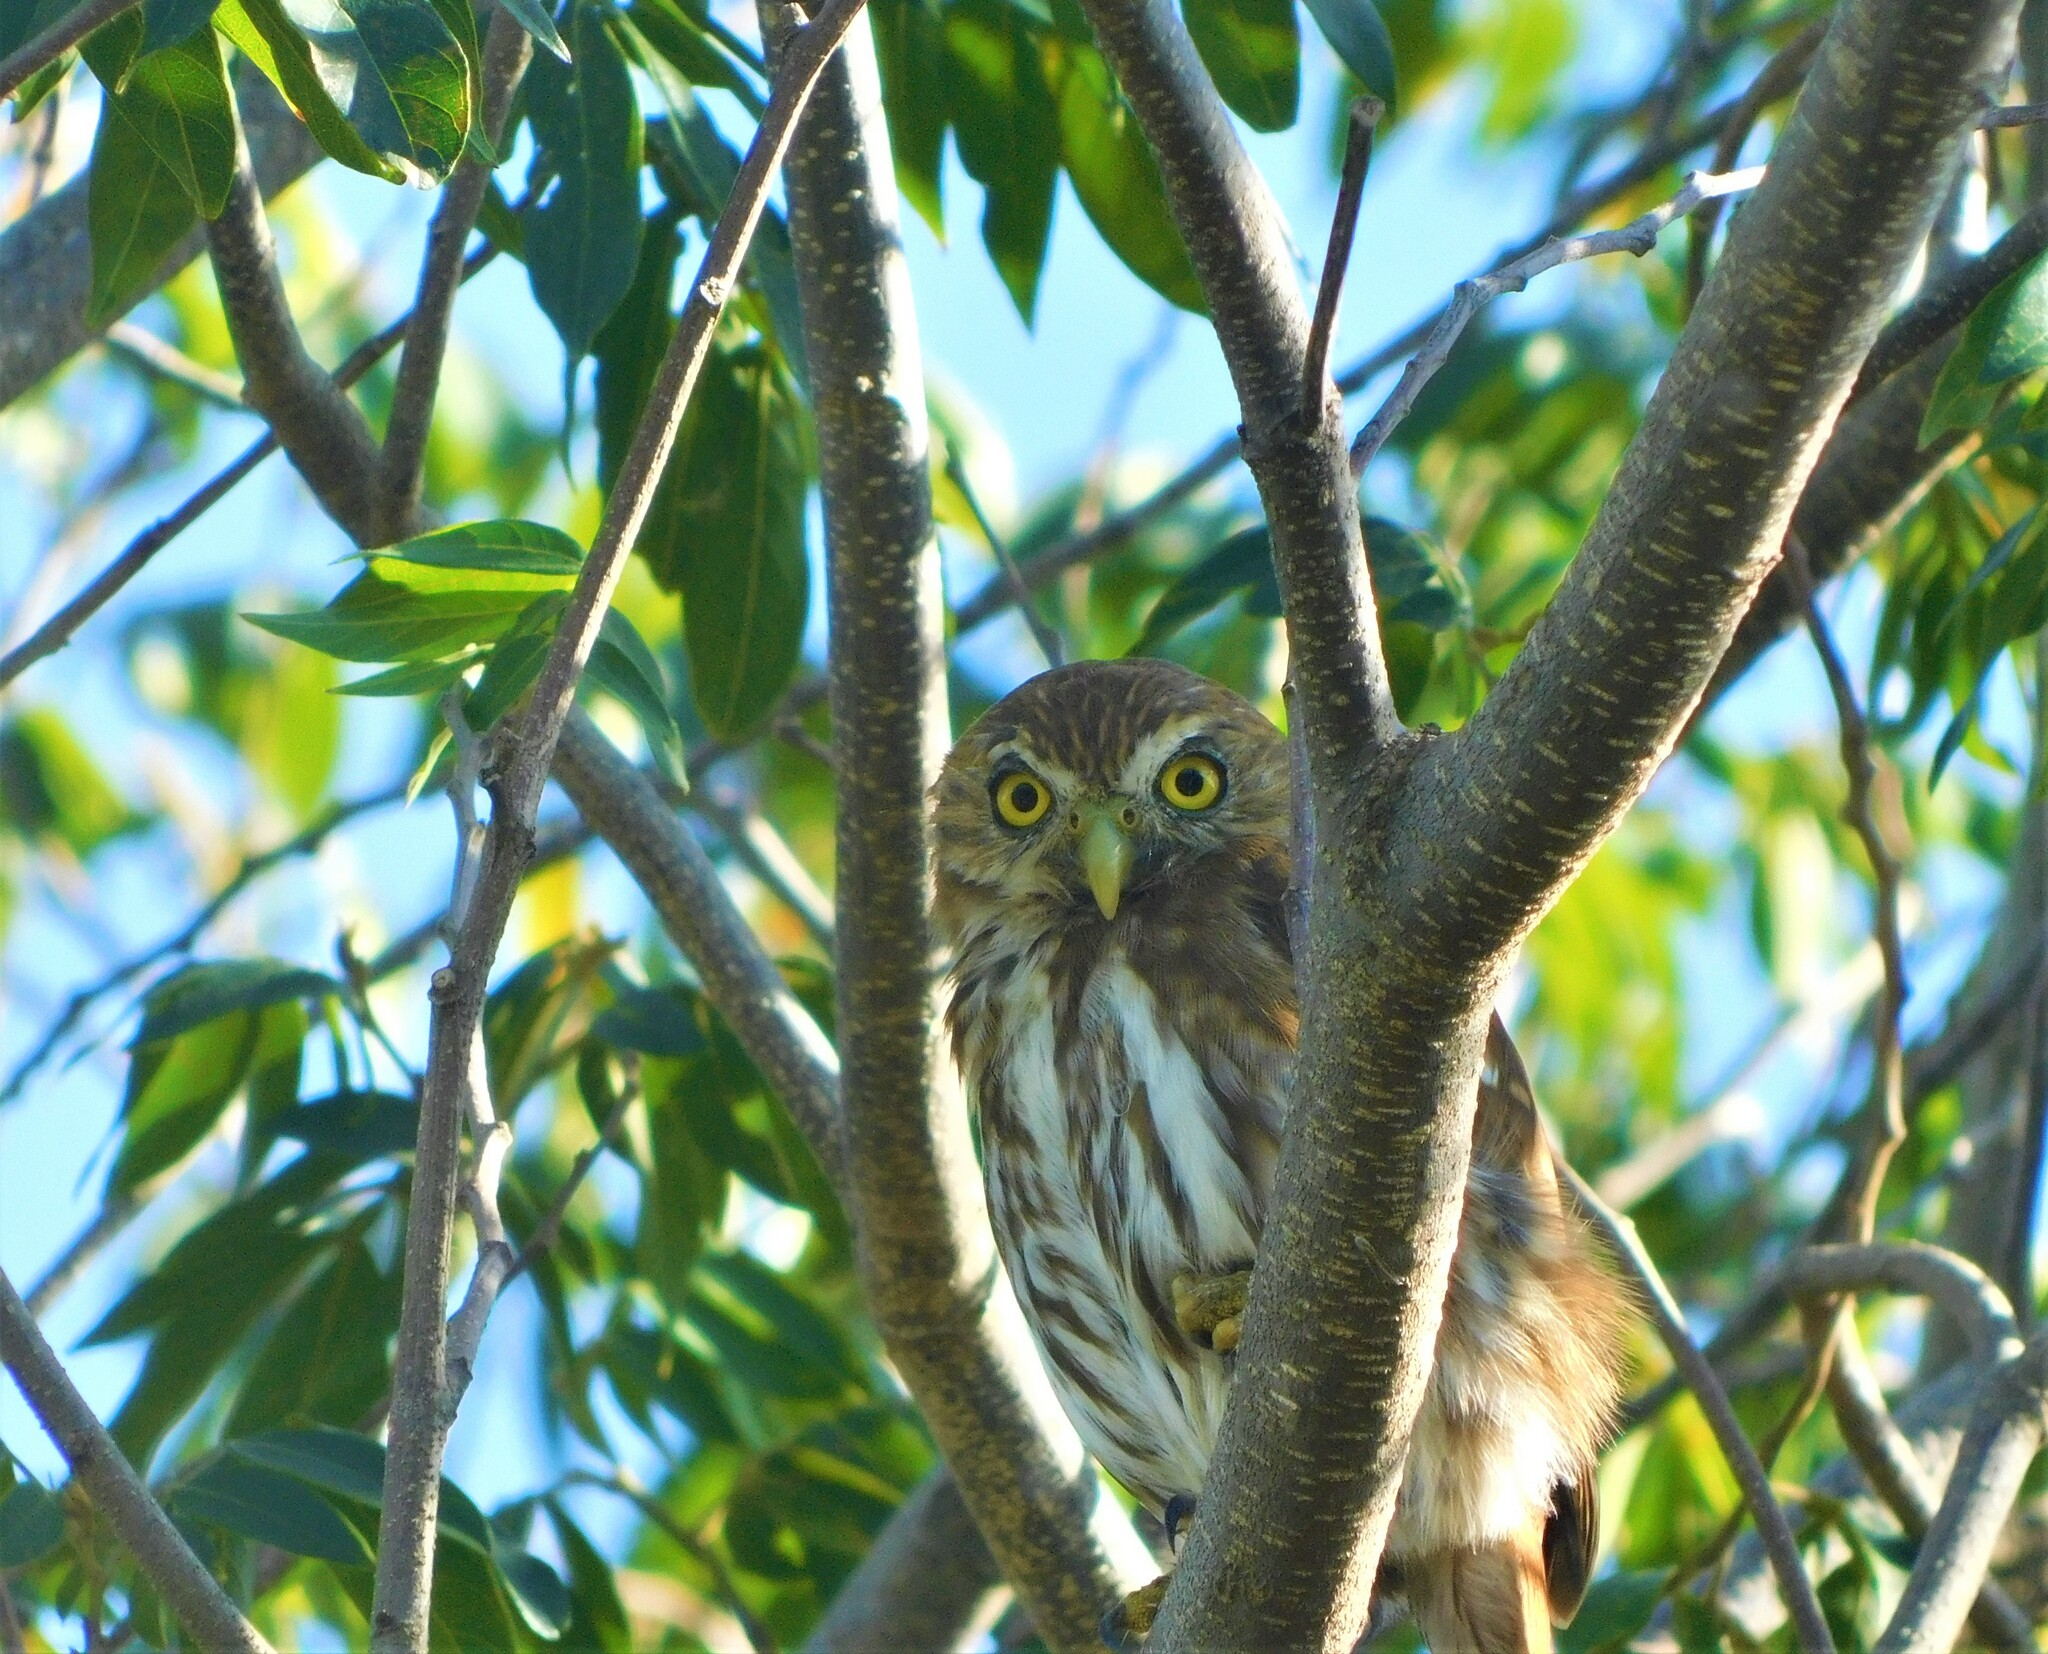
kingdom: Animalia
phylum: Chordata
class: Aves
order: Strigiformes
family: Strigidae
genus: Glaucidium
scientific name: Glaucidium brasilianum
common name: Ferruginous pygmy-owl
